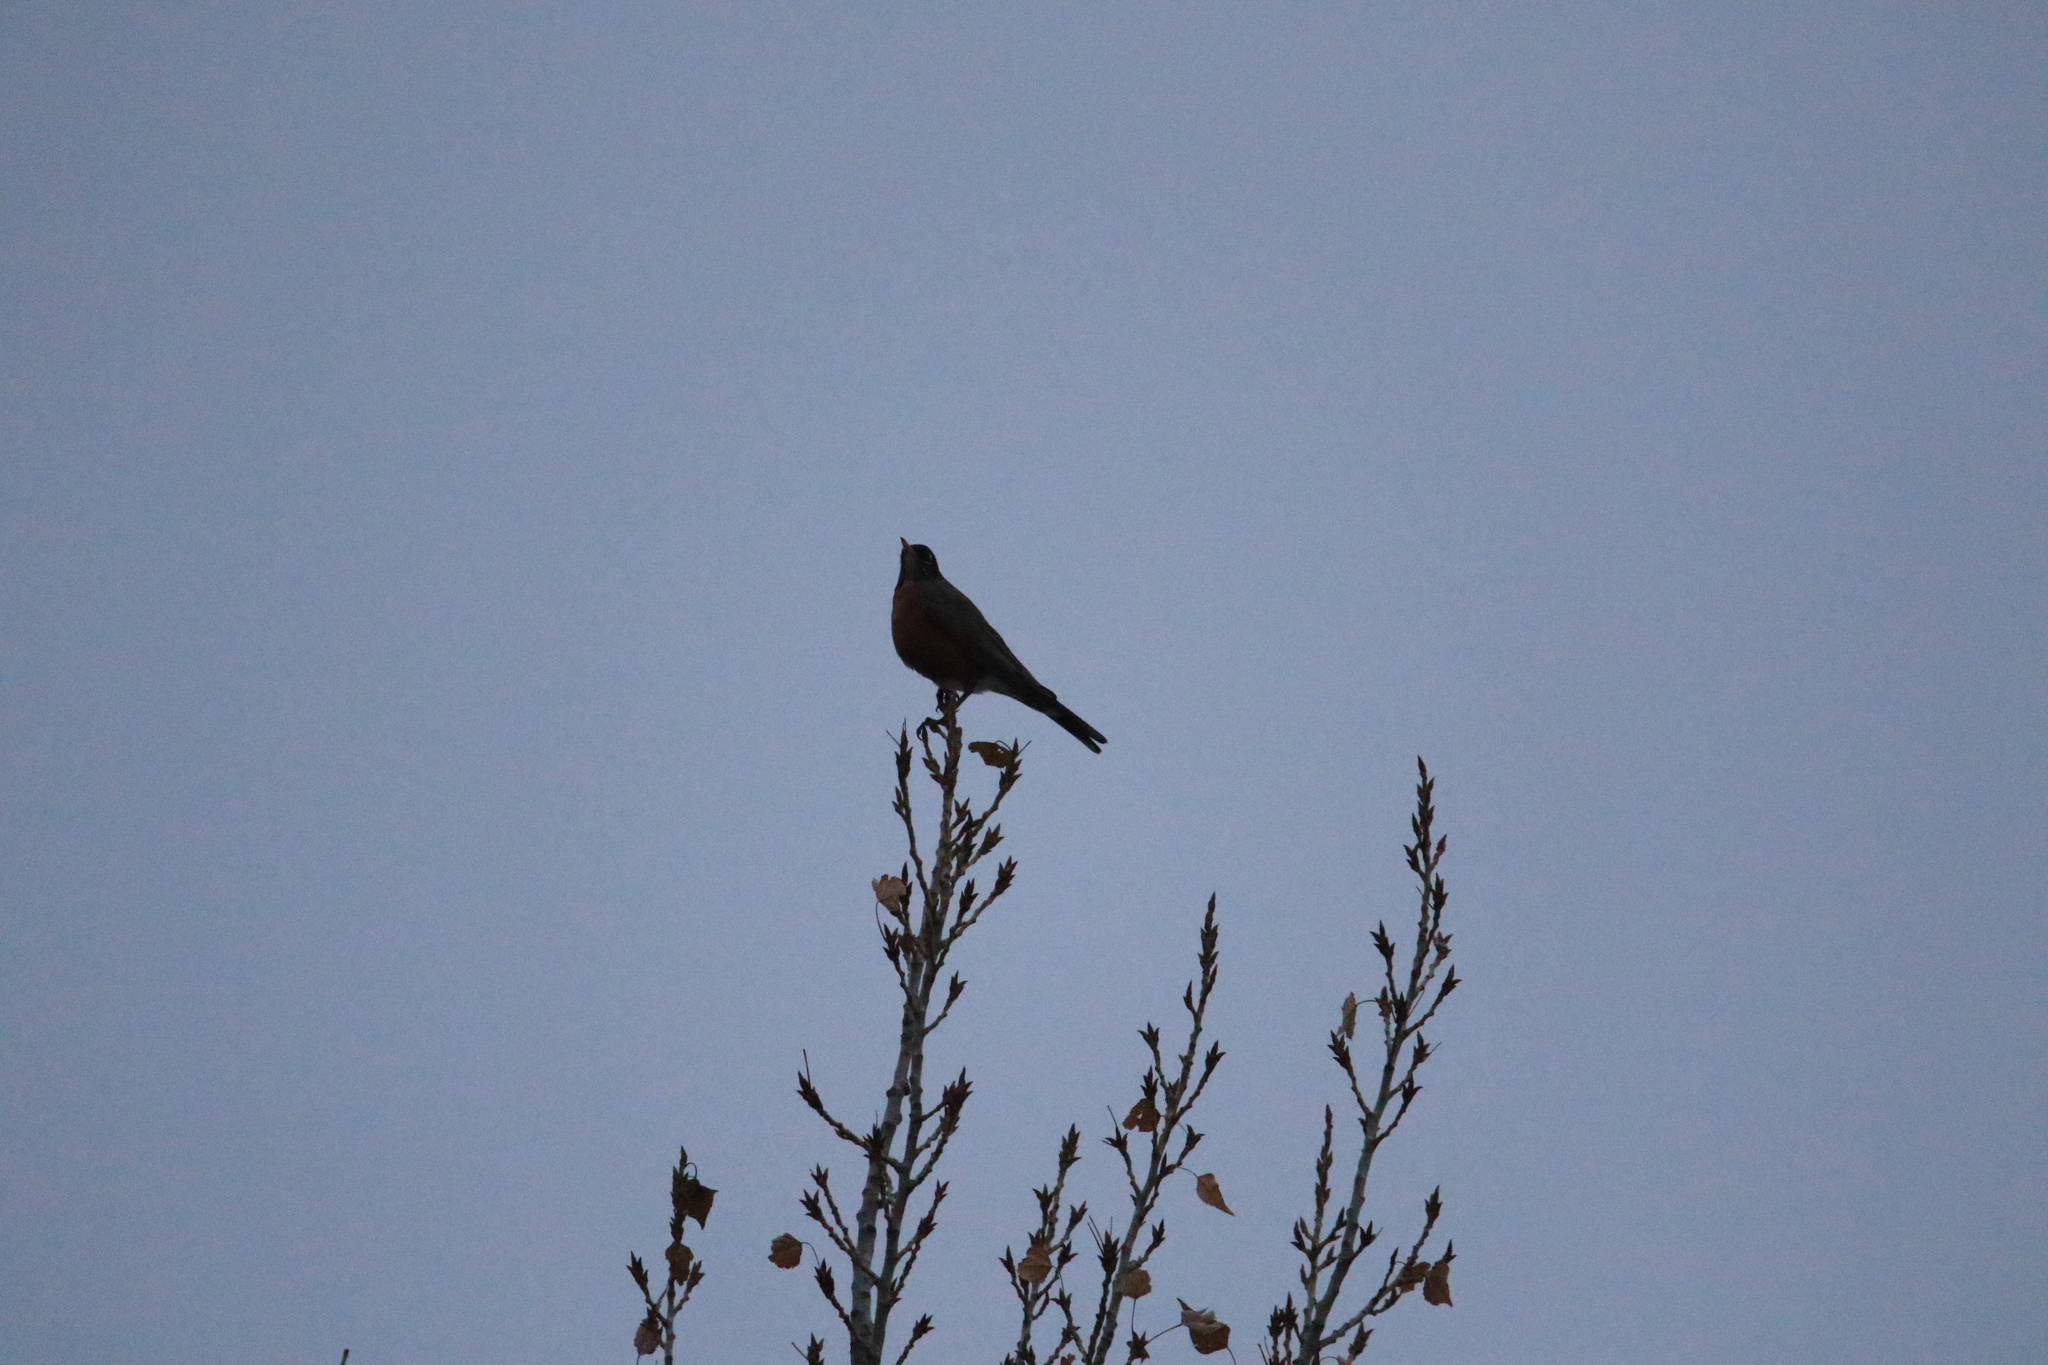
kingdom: Animalia
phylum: Chordata
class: Aves
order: Passeriformes
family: Turdidae
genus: Turdus
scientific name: Turdus migratorius
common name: American robin
